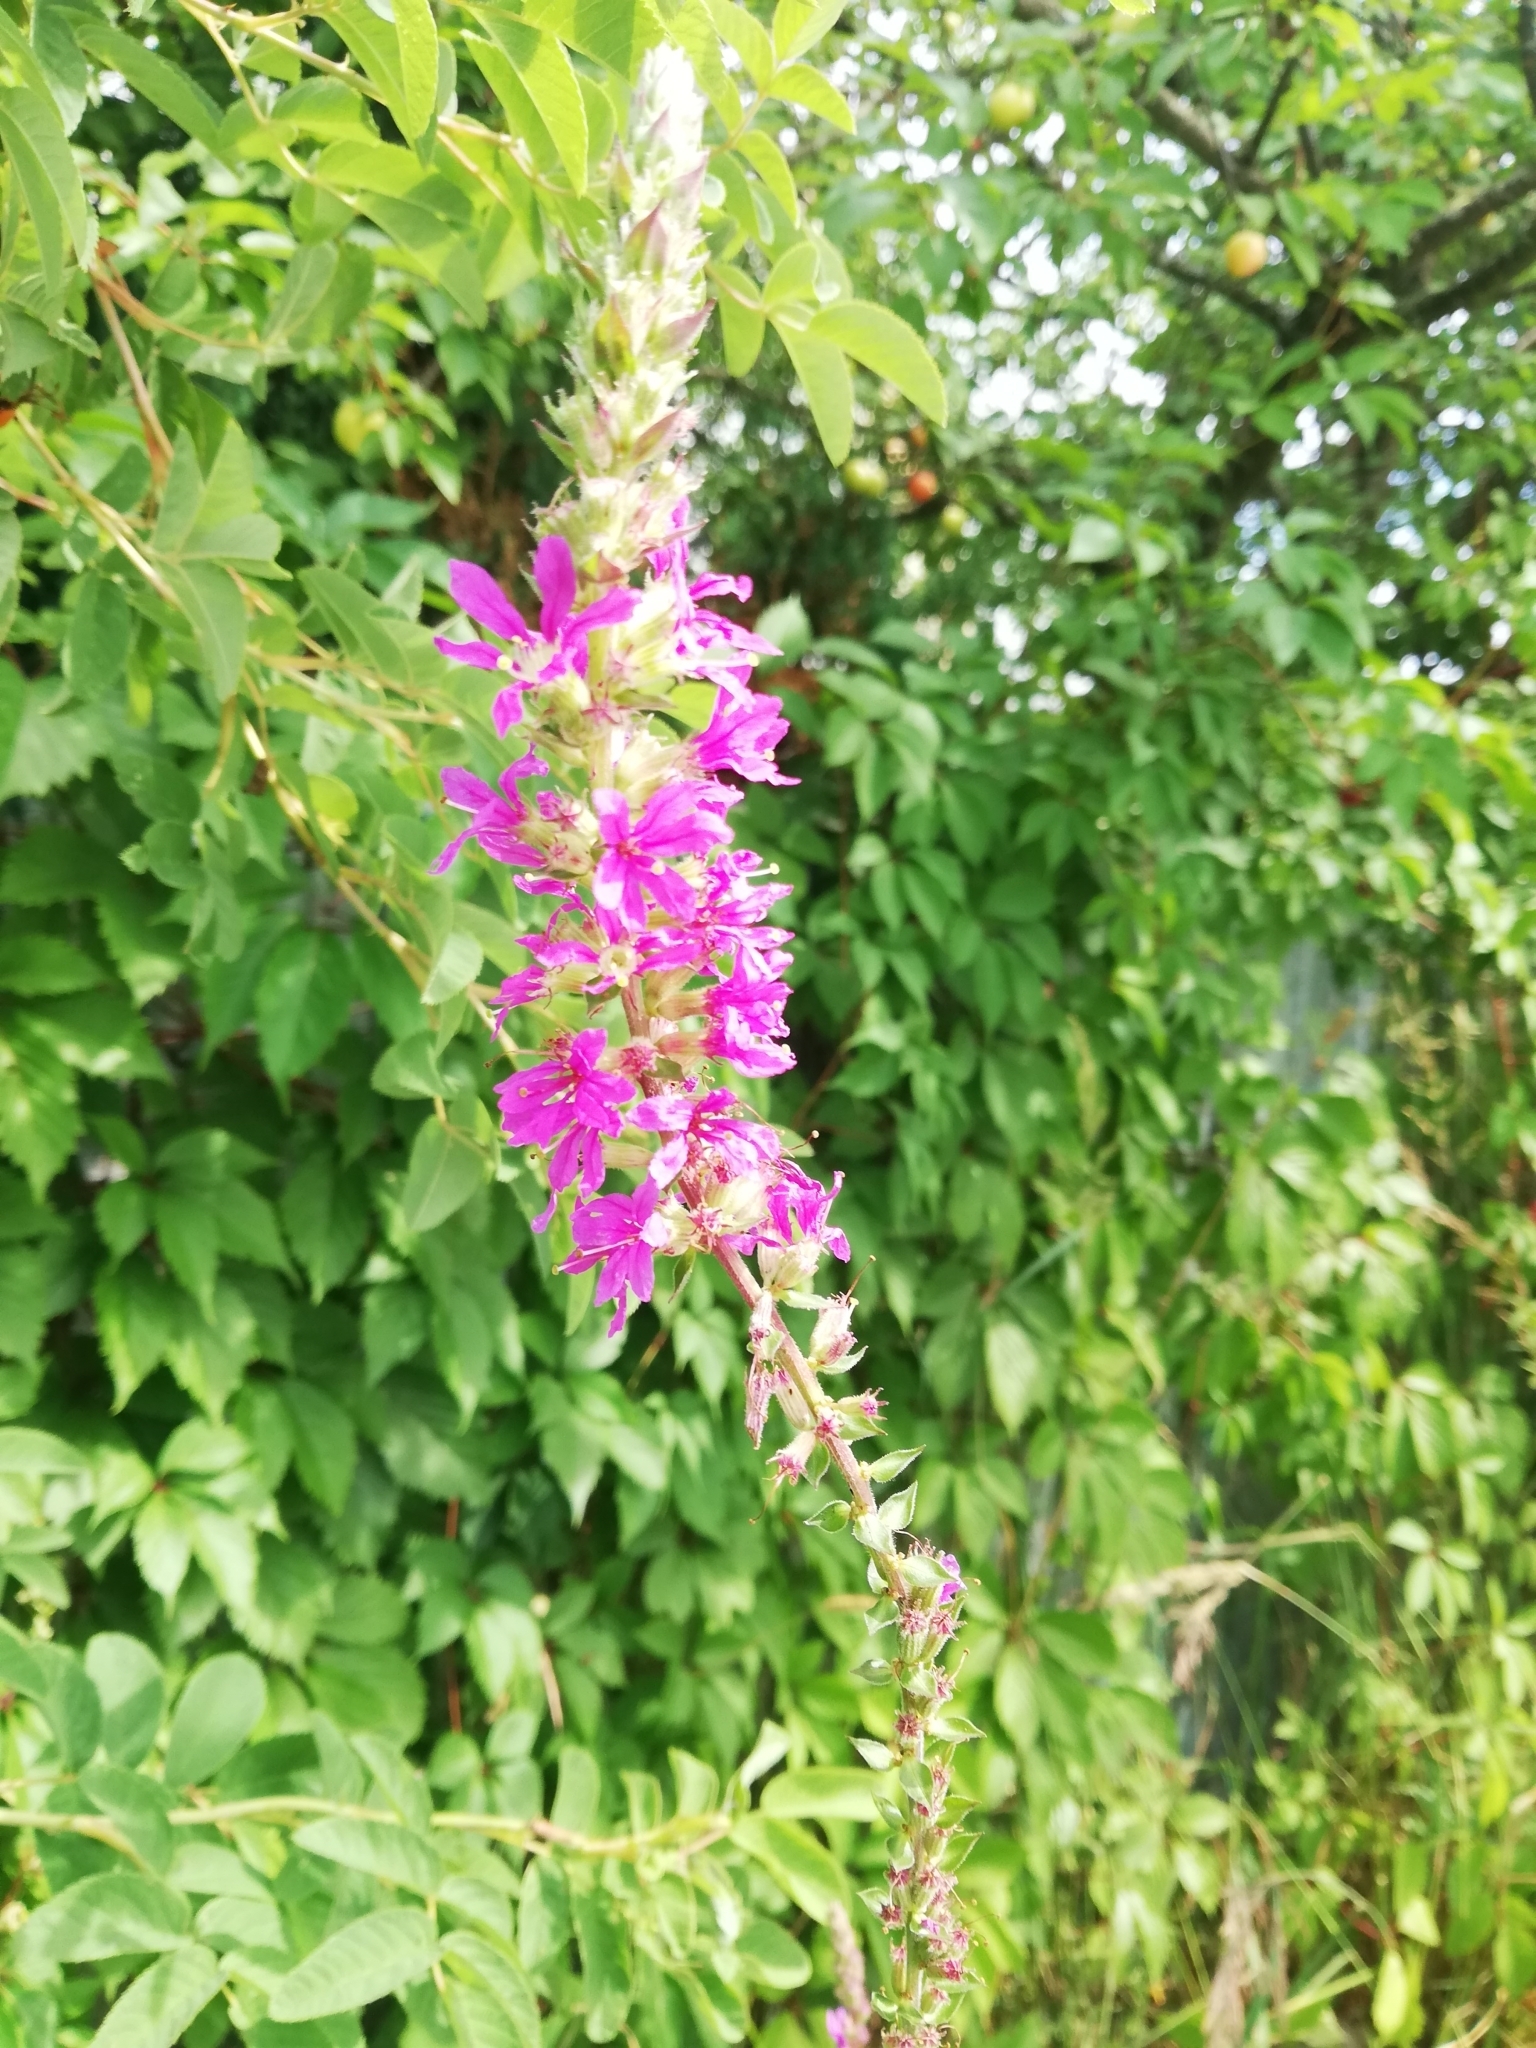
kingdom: Plantae
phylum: Tracheophyta
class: Magnoliopsida
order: Myrtales
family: Lythraceae
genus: Lythrum
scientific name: Lythrum salicaria
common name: Purple loosestrife
